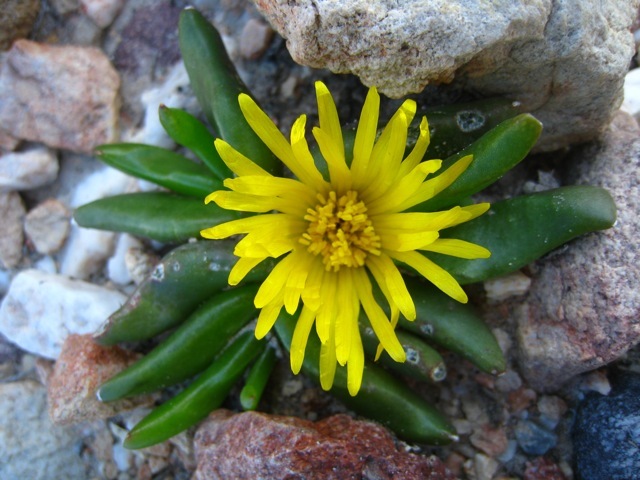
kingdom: Plantae
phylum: Tracheophyta
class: Magnoliopsida
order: Caryophyllales
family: Aizoaceae
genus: Glottiphyllum
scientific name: Glottiphyllum depressum
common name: Fig-marigold
